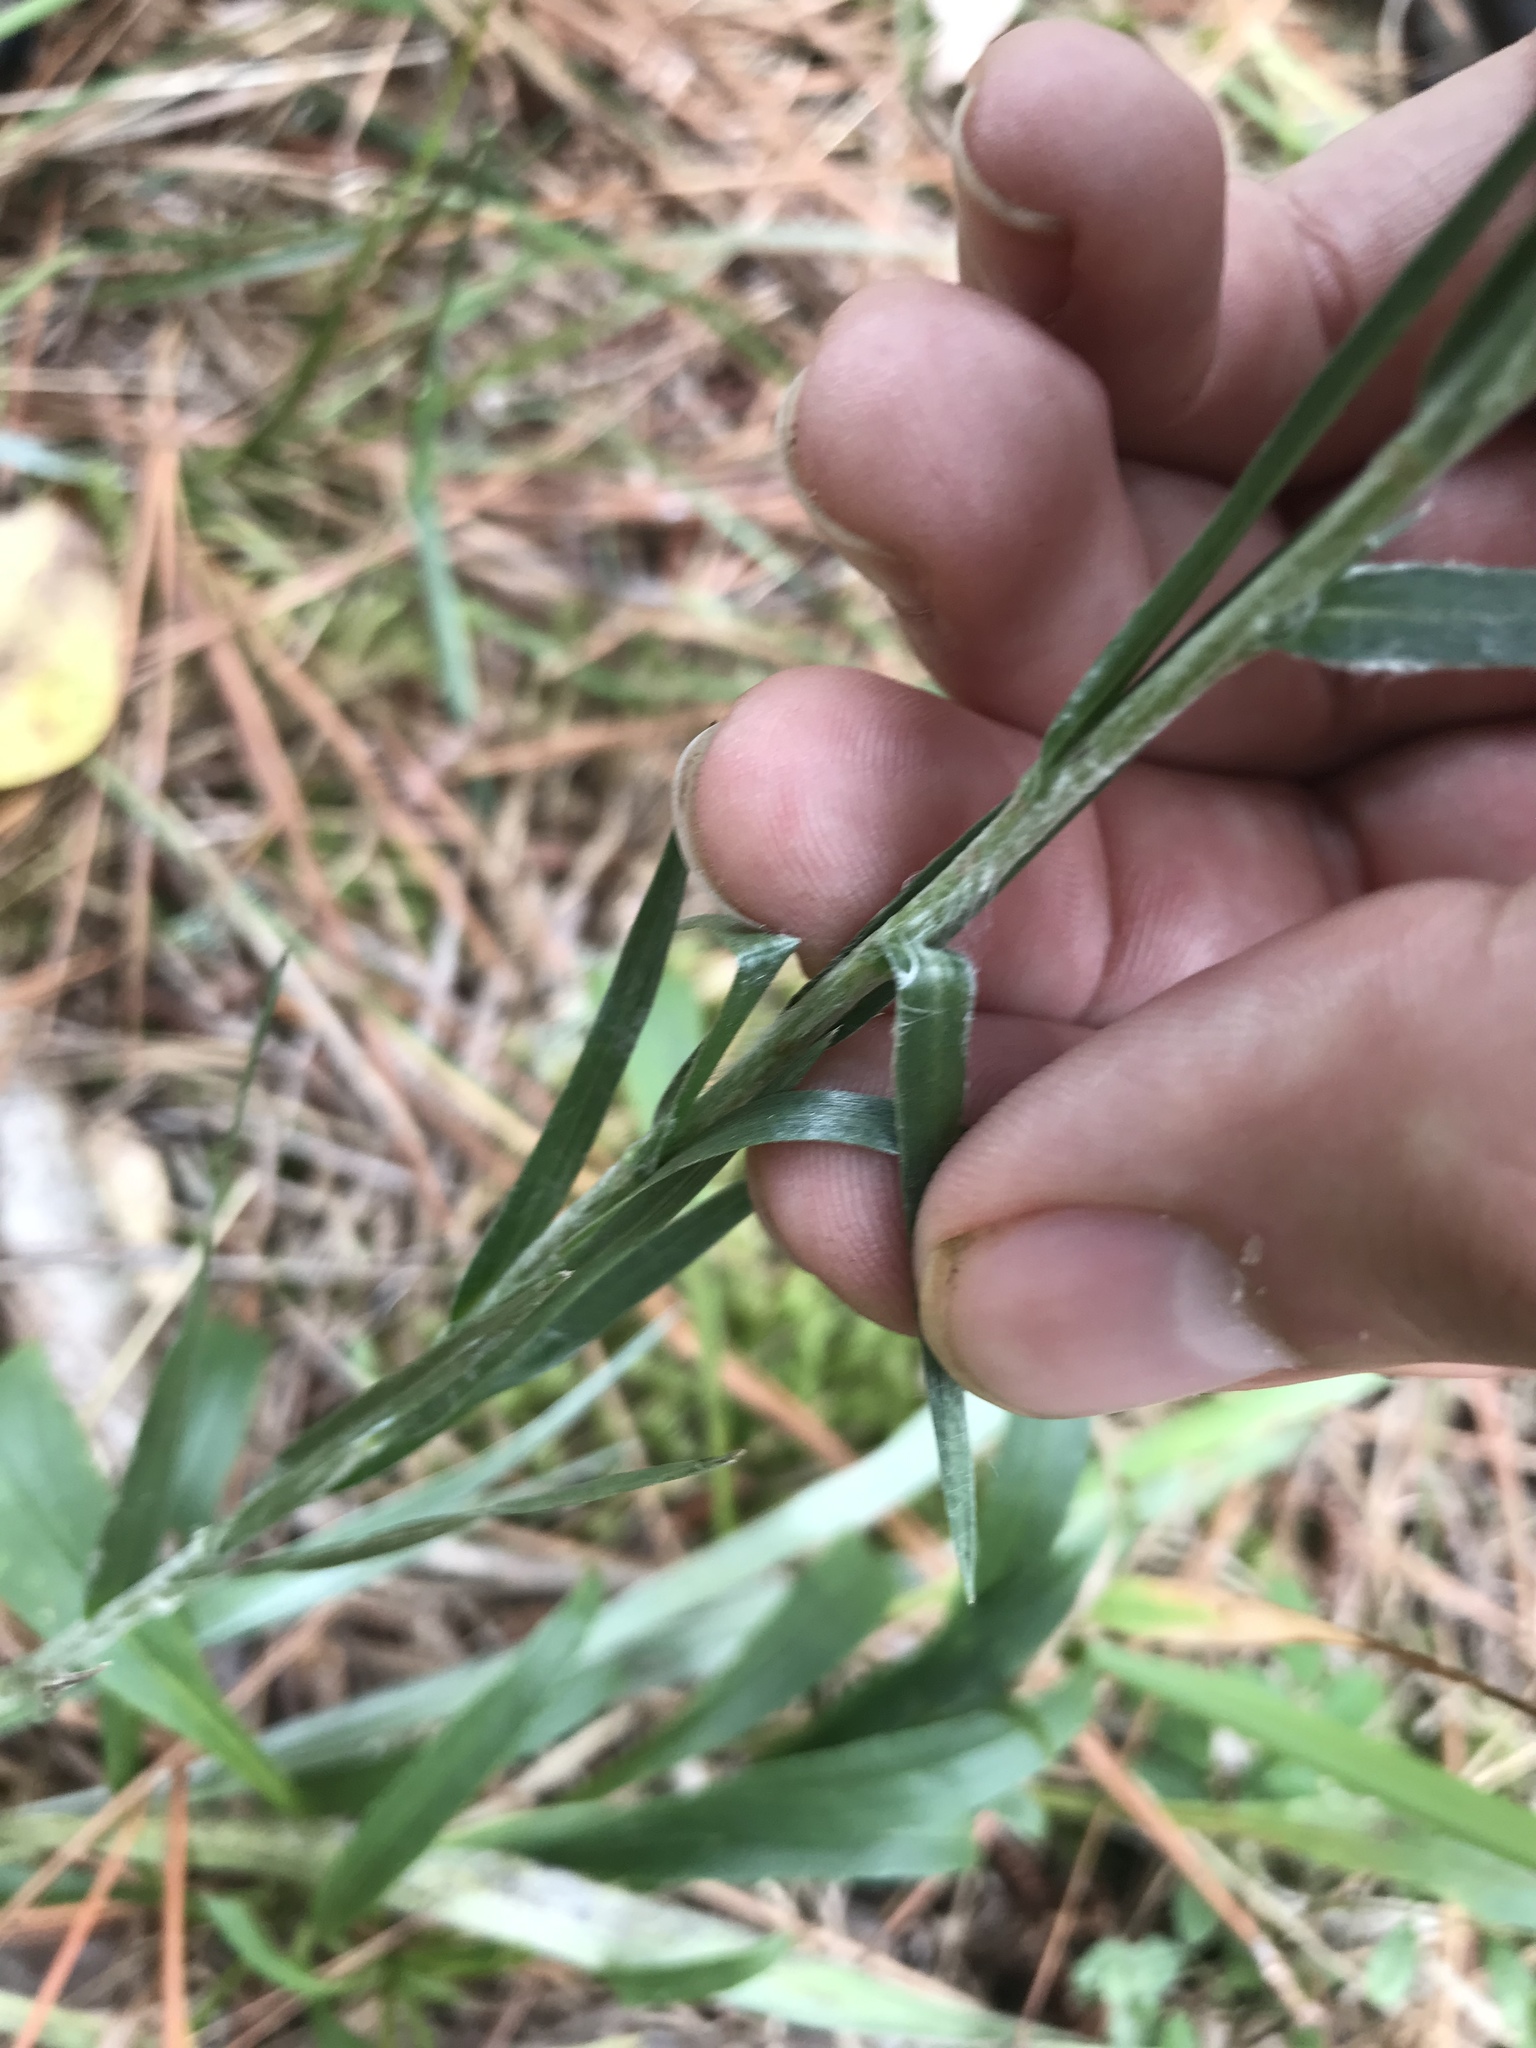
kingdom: Plantae
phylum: Tracheophyta
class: Magnoliopsida
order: Asterales
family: Asteraceae
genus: Pityopsis
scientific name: Pityopsis aspera
